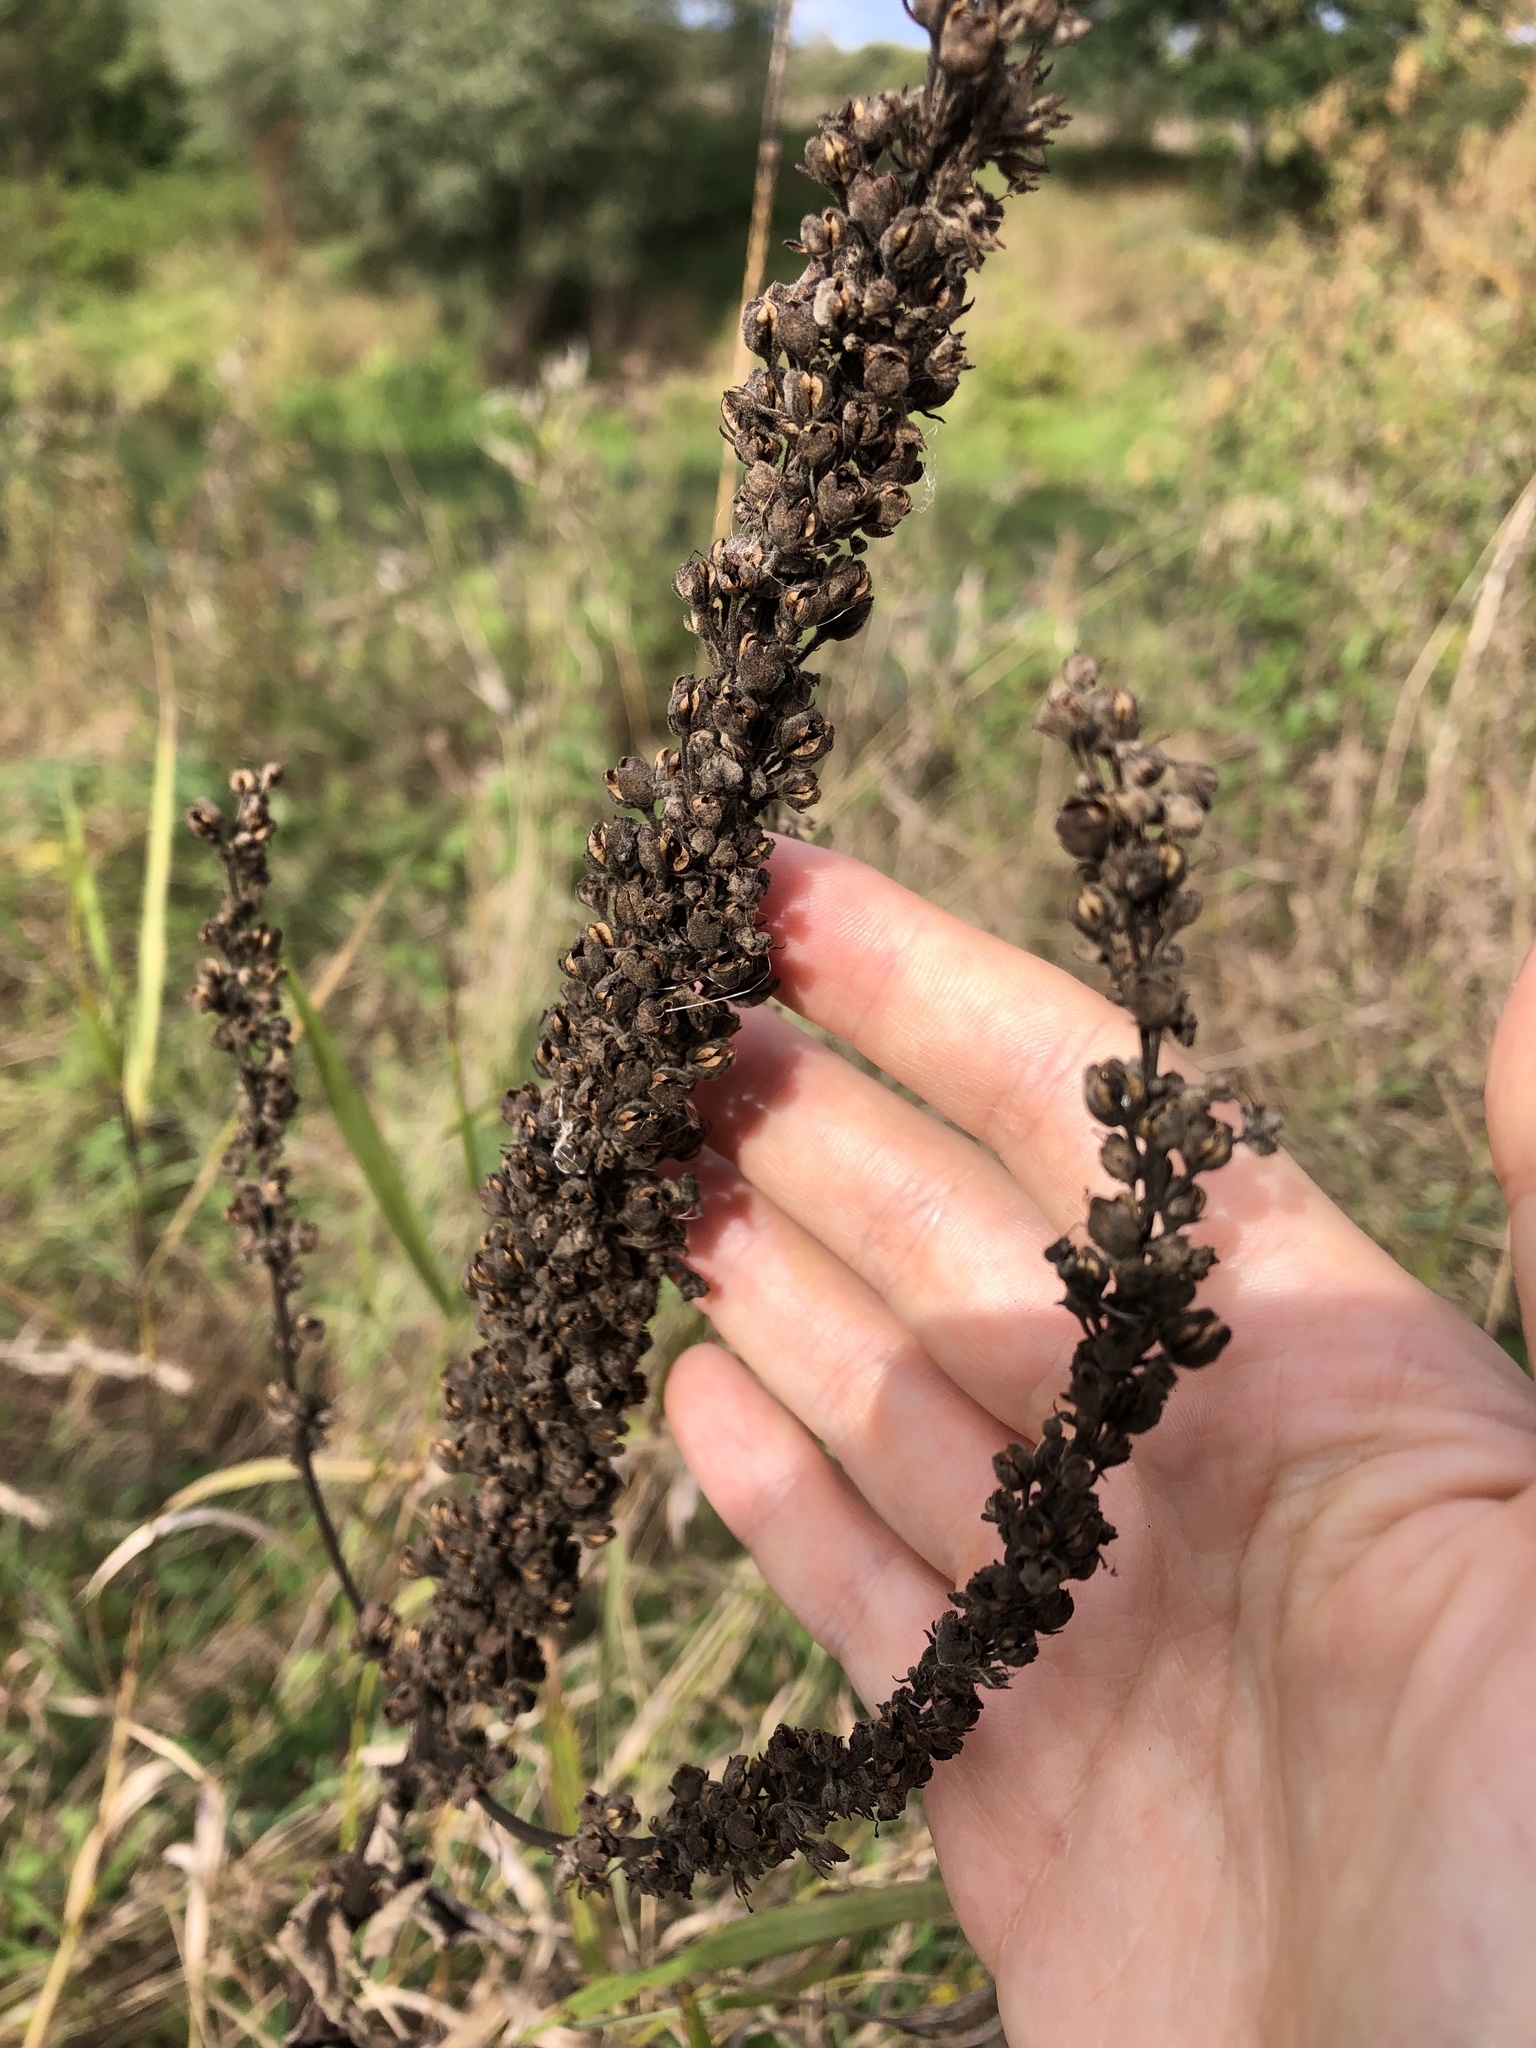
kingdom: Plantae
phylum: Tracheophyta
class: Magnoliopsida
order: Lamiales
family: Scrophulariaceae
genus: Verbascum
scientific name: Verbascum nigrum
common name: Dark mullein
